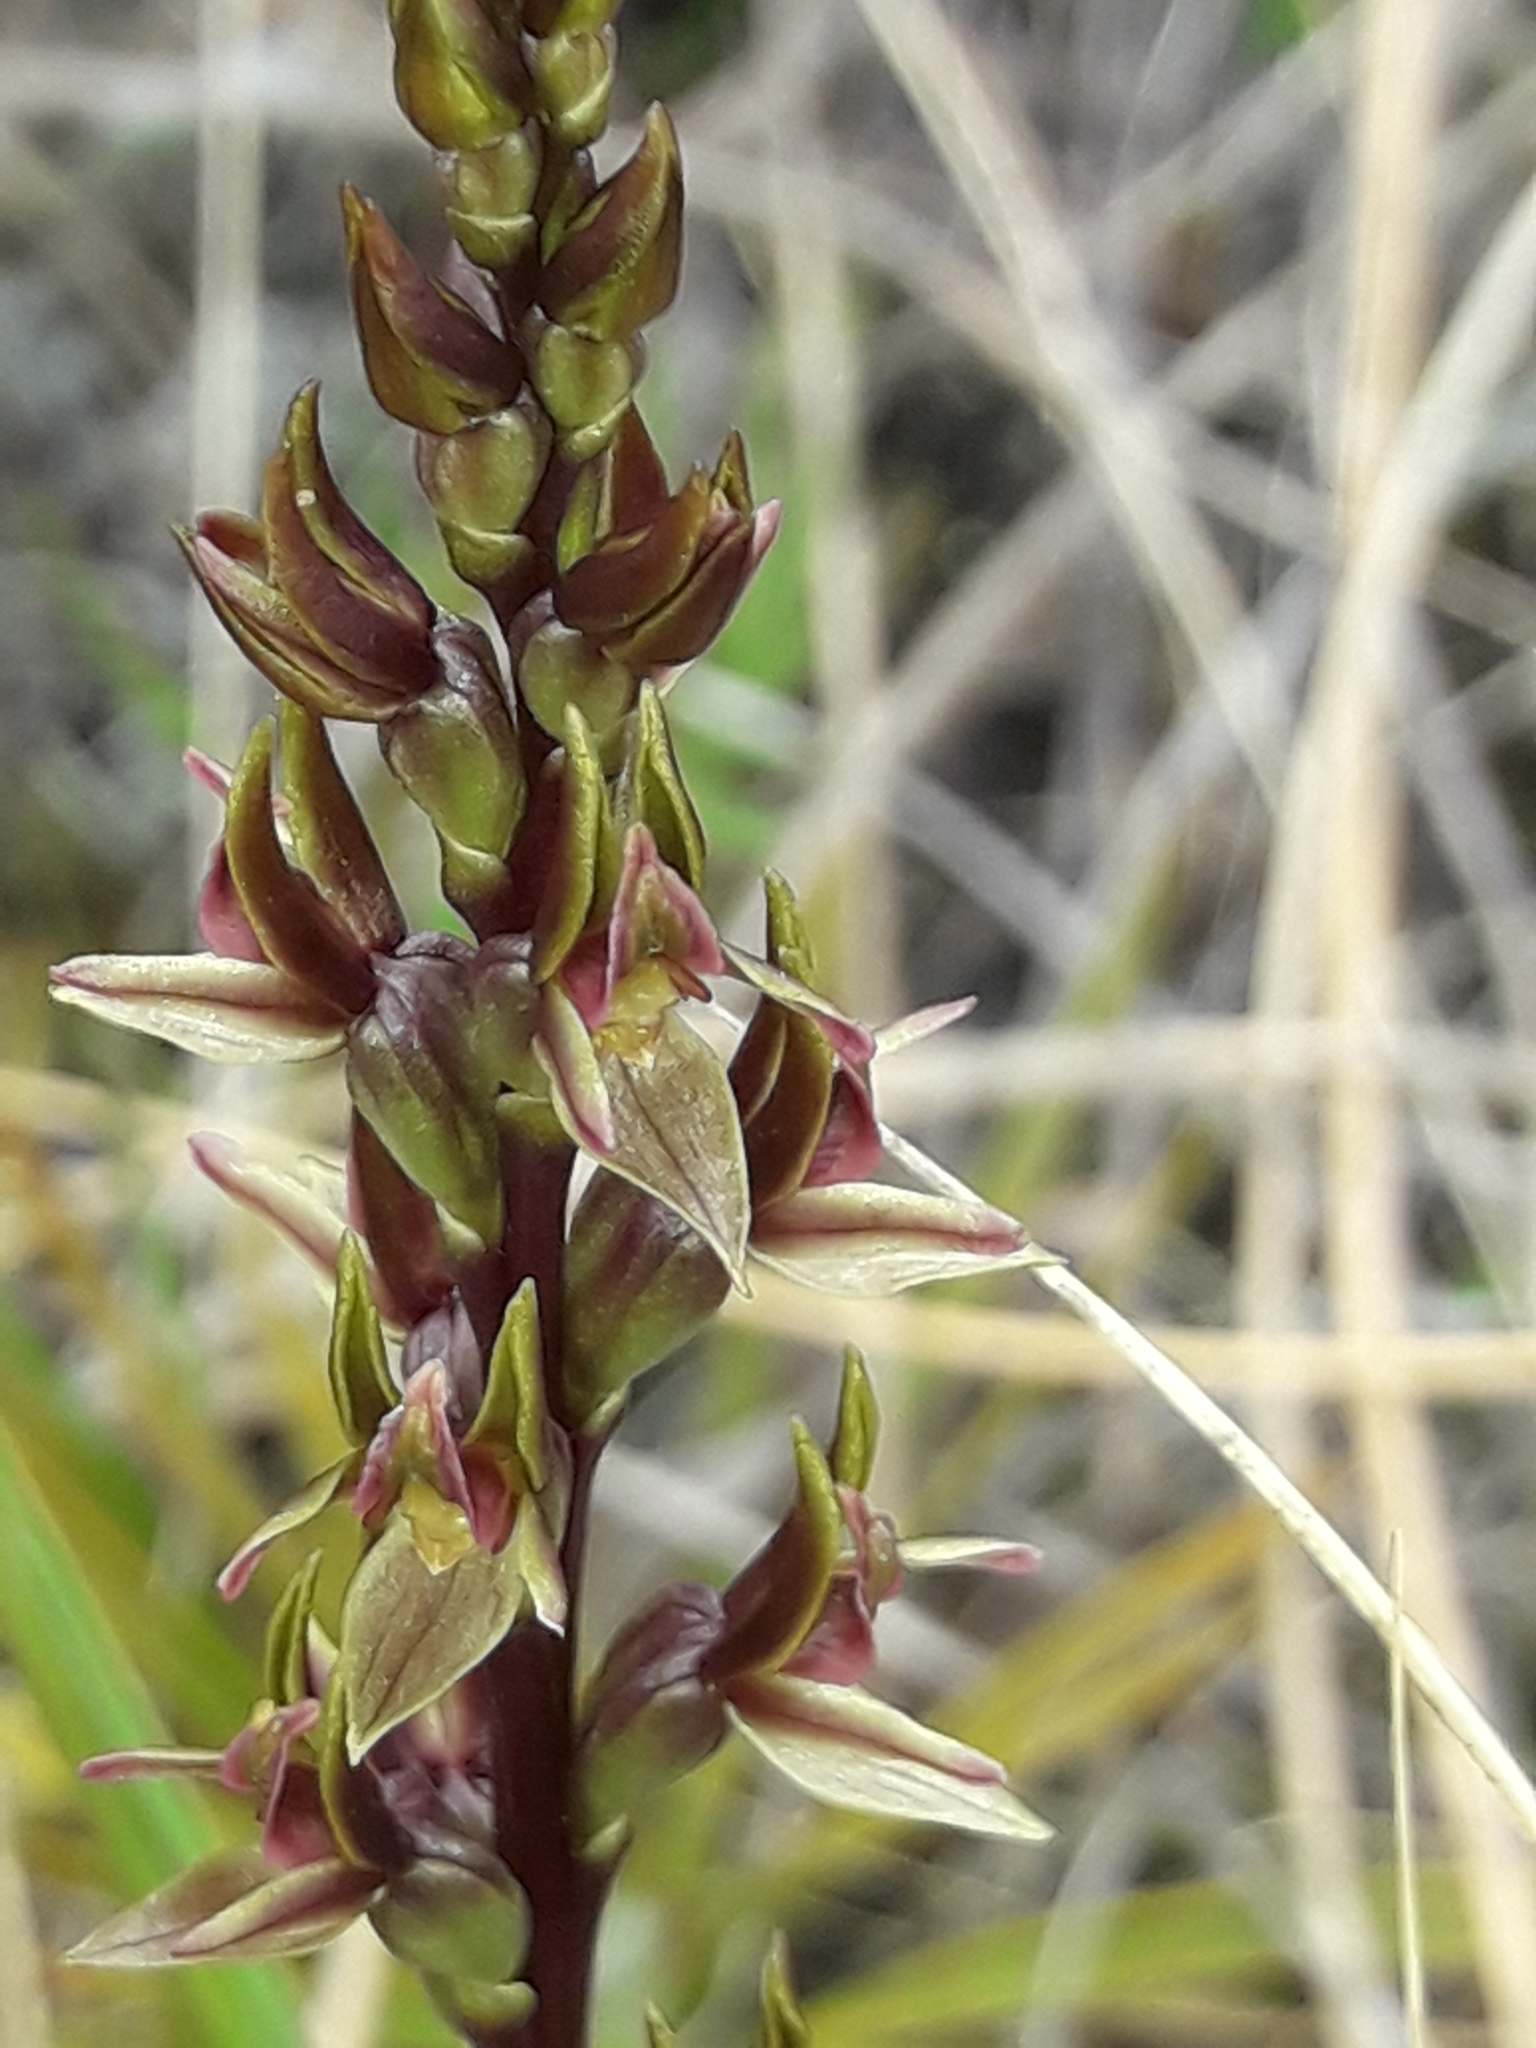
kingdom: Plantae
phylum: Tracheophyta
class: Liliopsida
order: Asparagales
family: Orchidaceae
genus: Prasophyllum
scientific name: Prasophyllum colensoi
